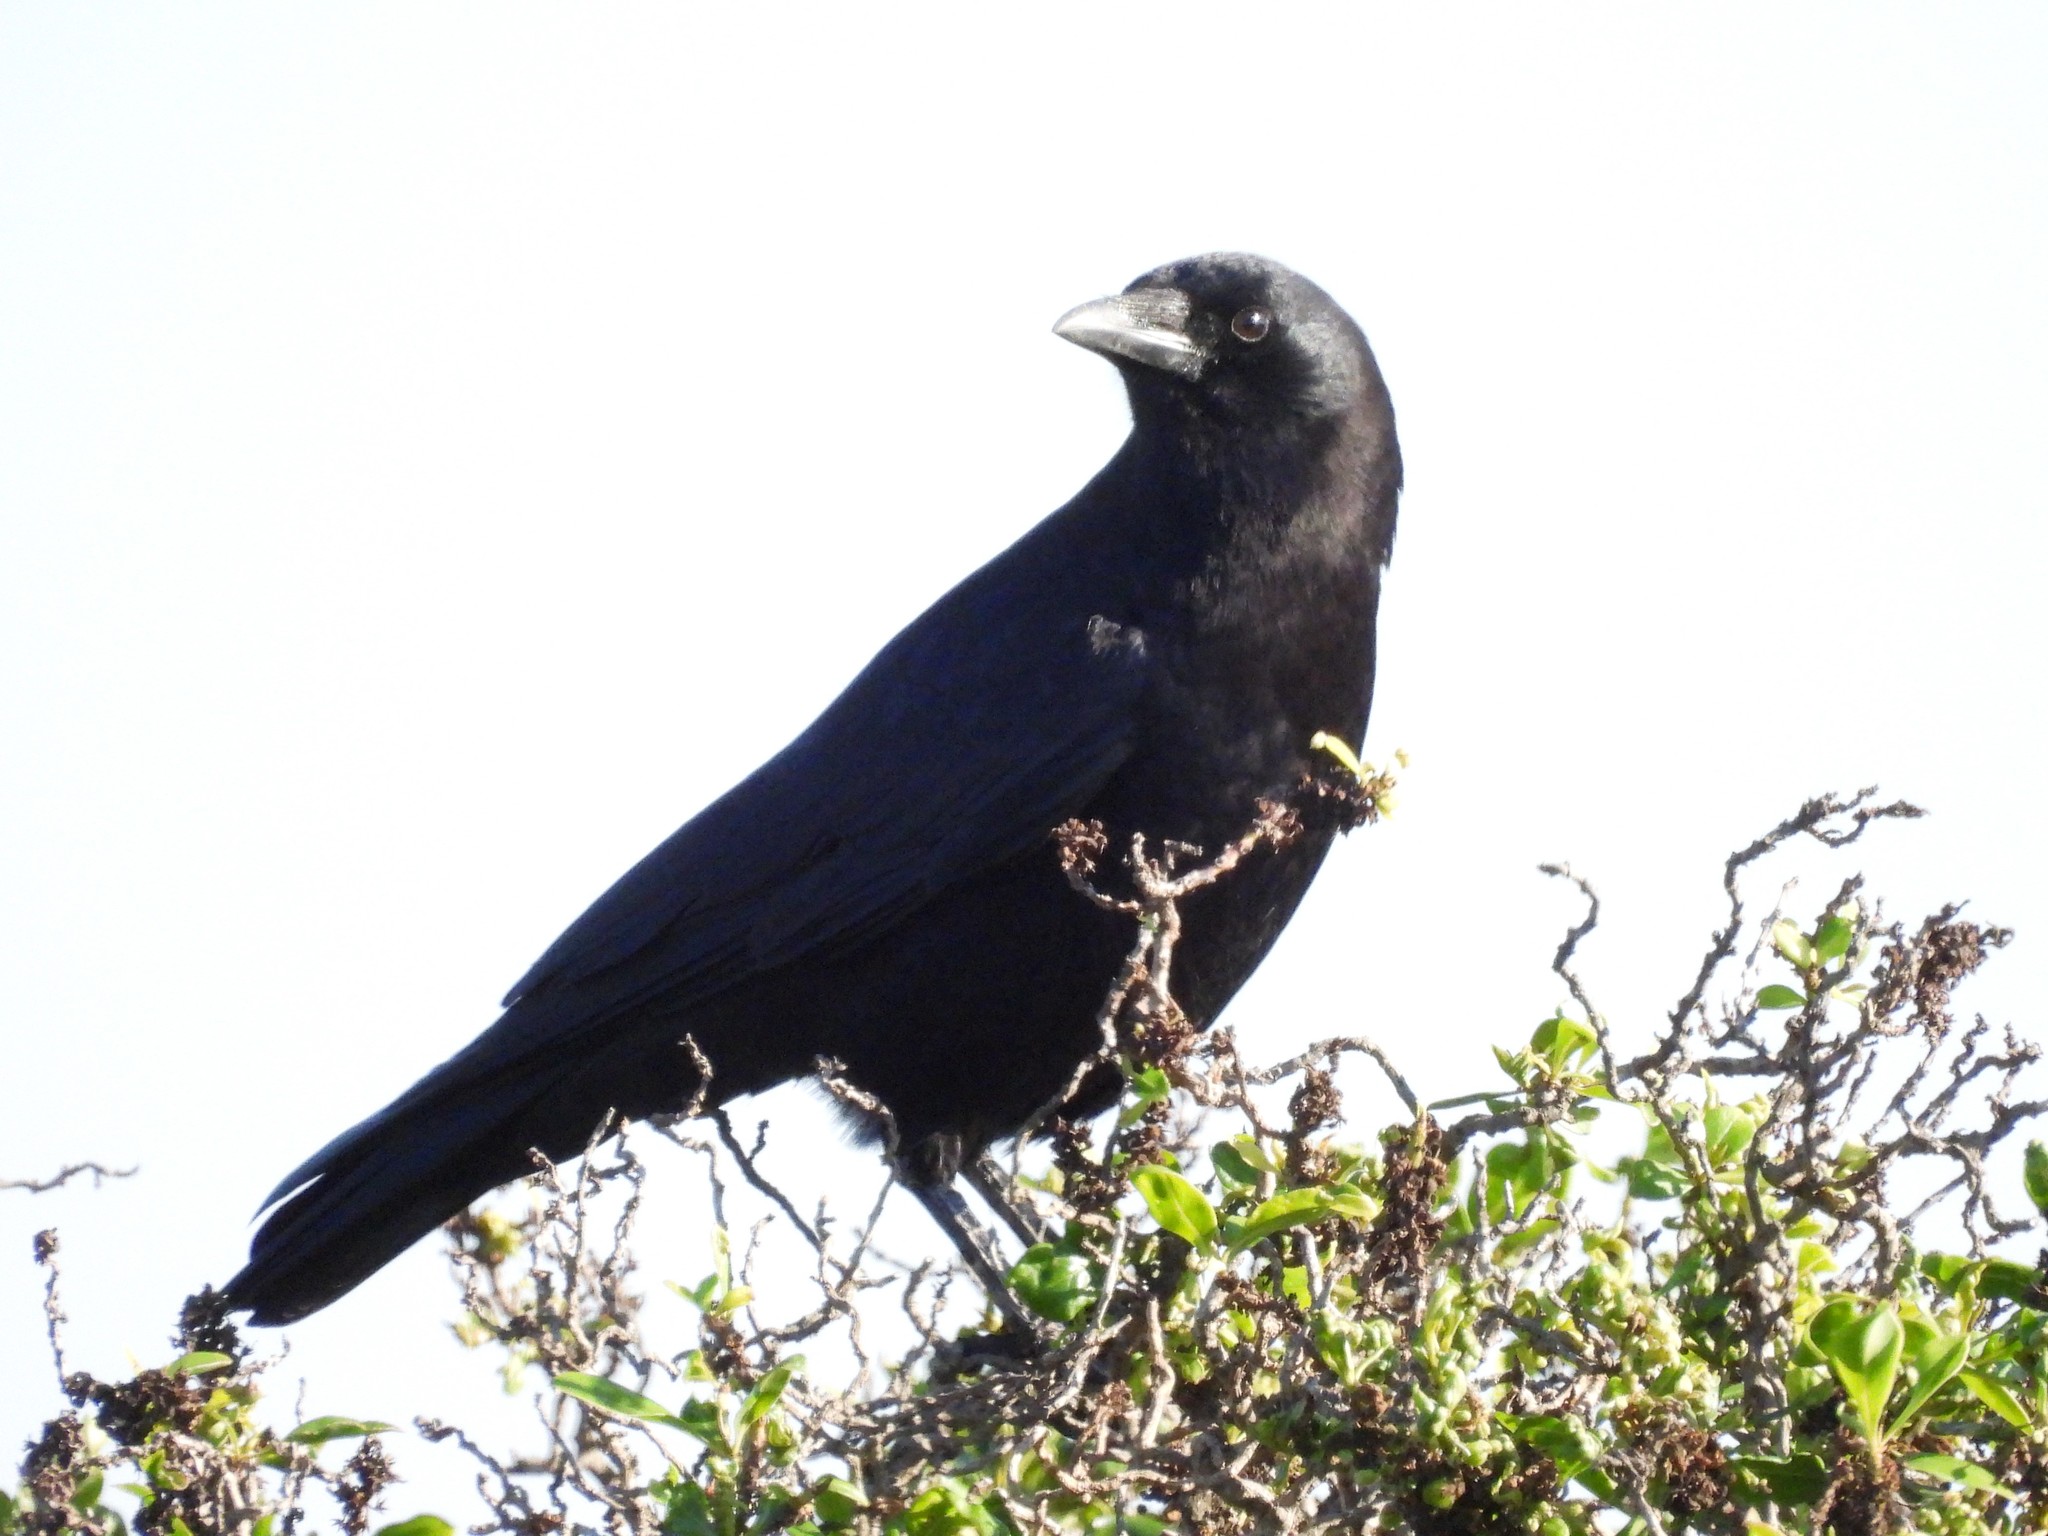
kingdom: Animalia
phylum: Chordata
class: Aves
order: Passeriformes
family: Corvidae
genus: Corvus
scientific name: Corvus brachyrhynchos
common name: American crow
